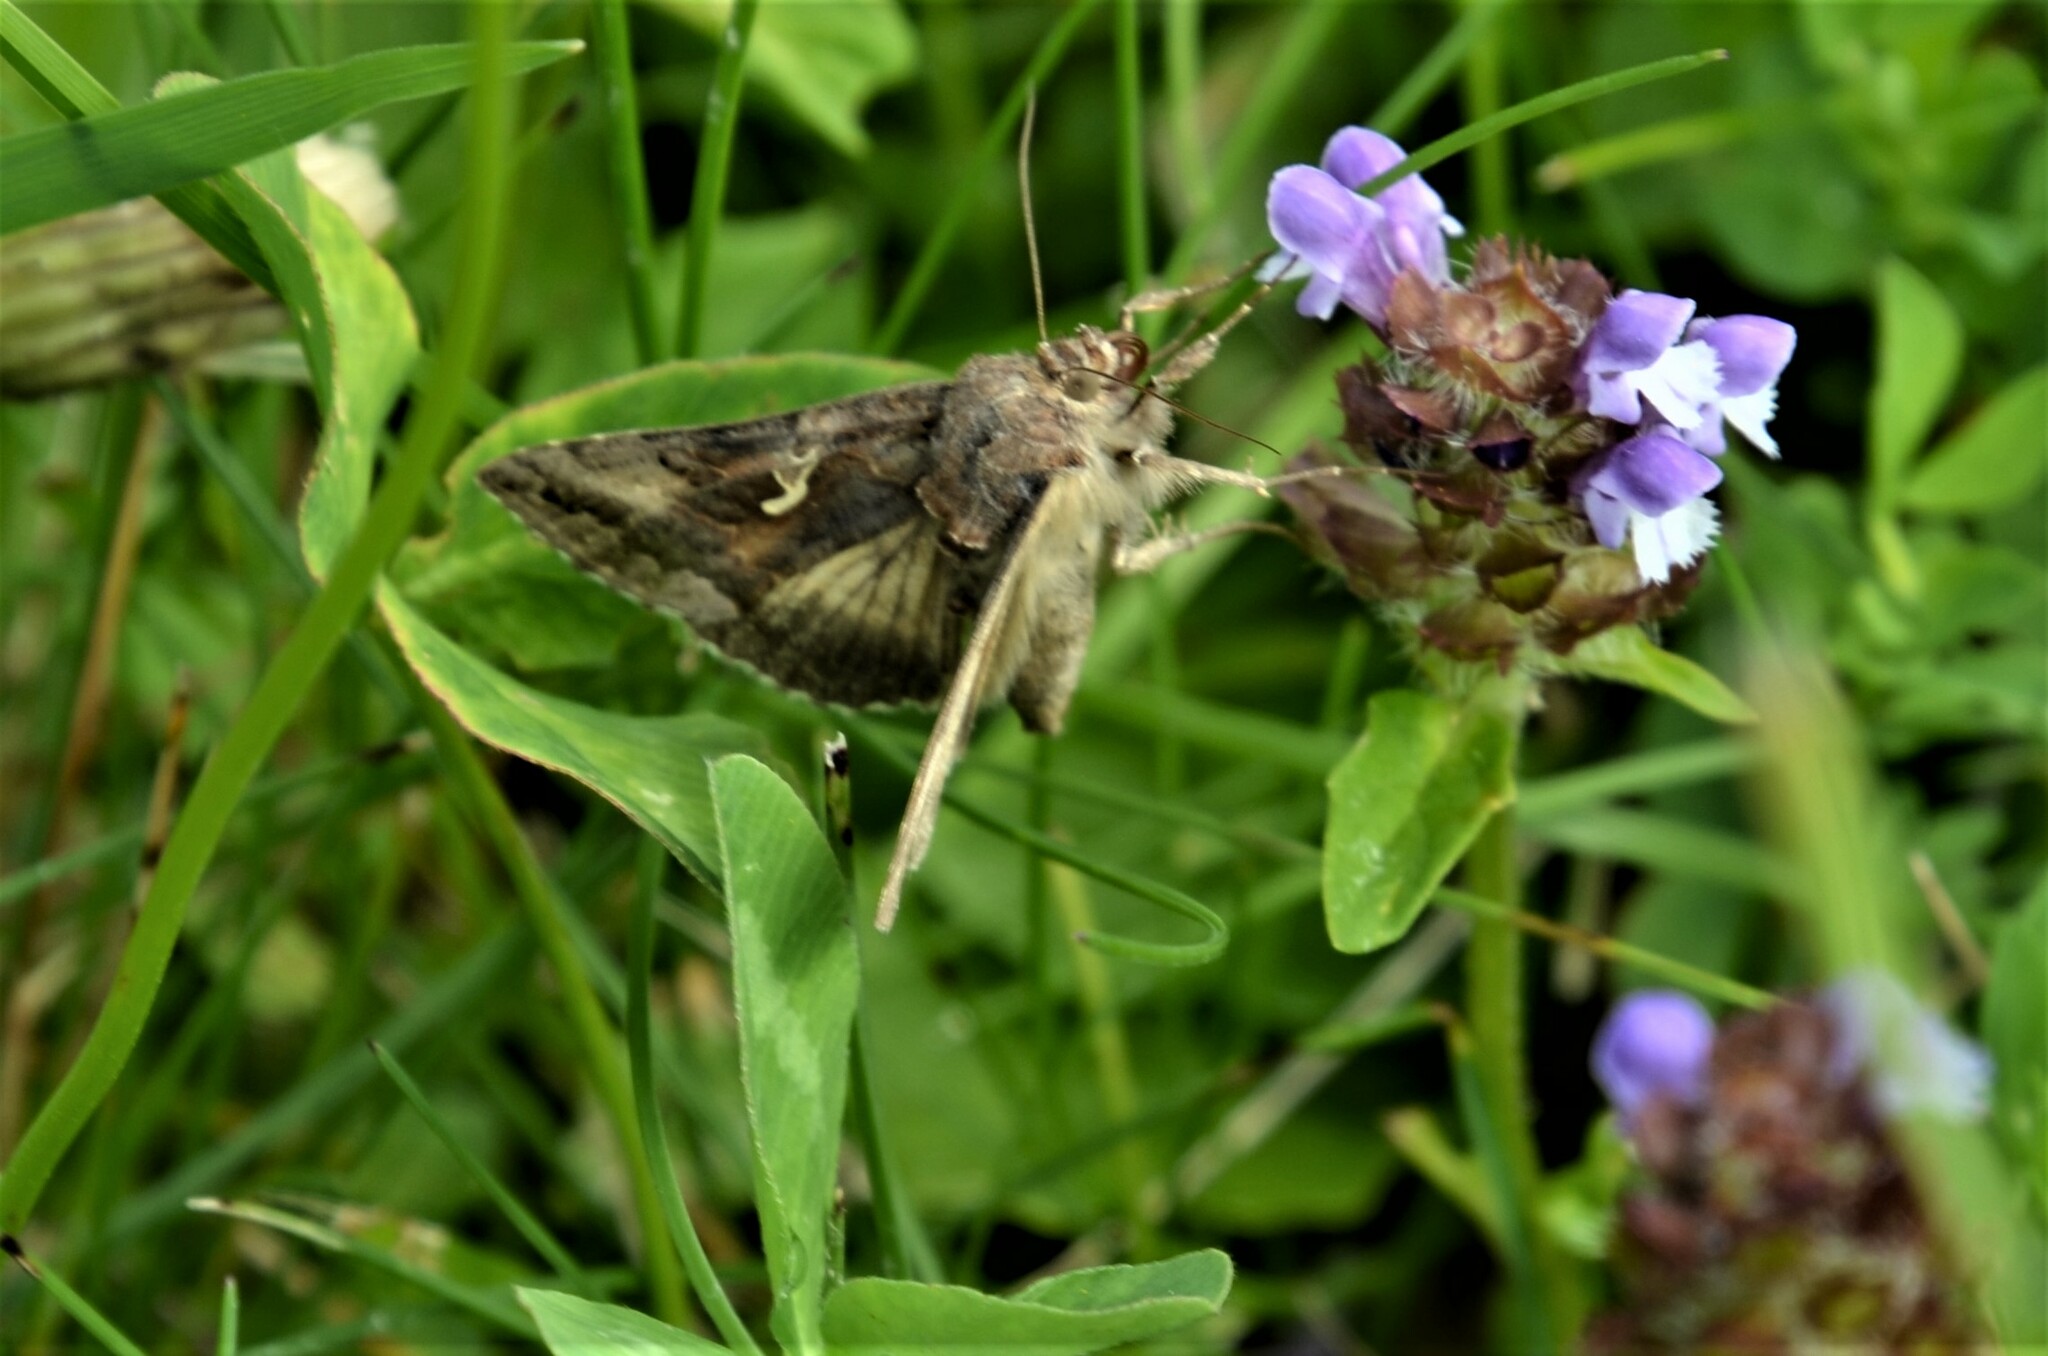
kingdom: Animalia
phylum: Arthropoda
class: Insecta
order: Lepidoptera
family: Noctuidae
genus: Autographa
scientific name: Autographa gamma
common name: Silver y
